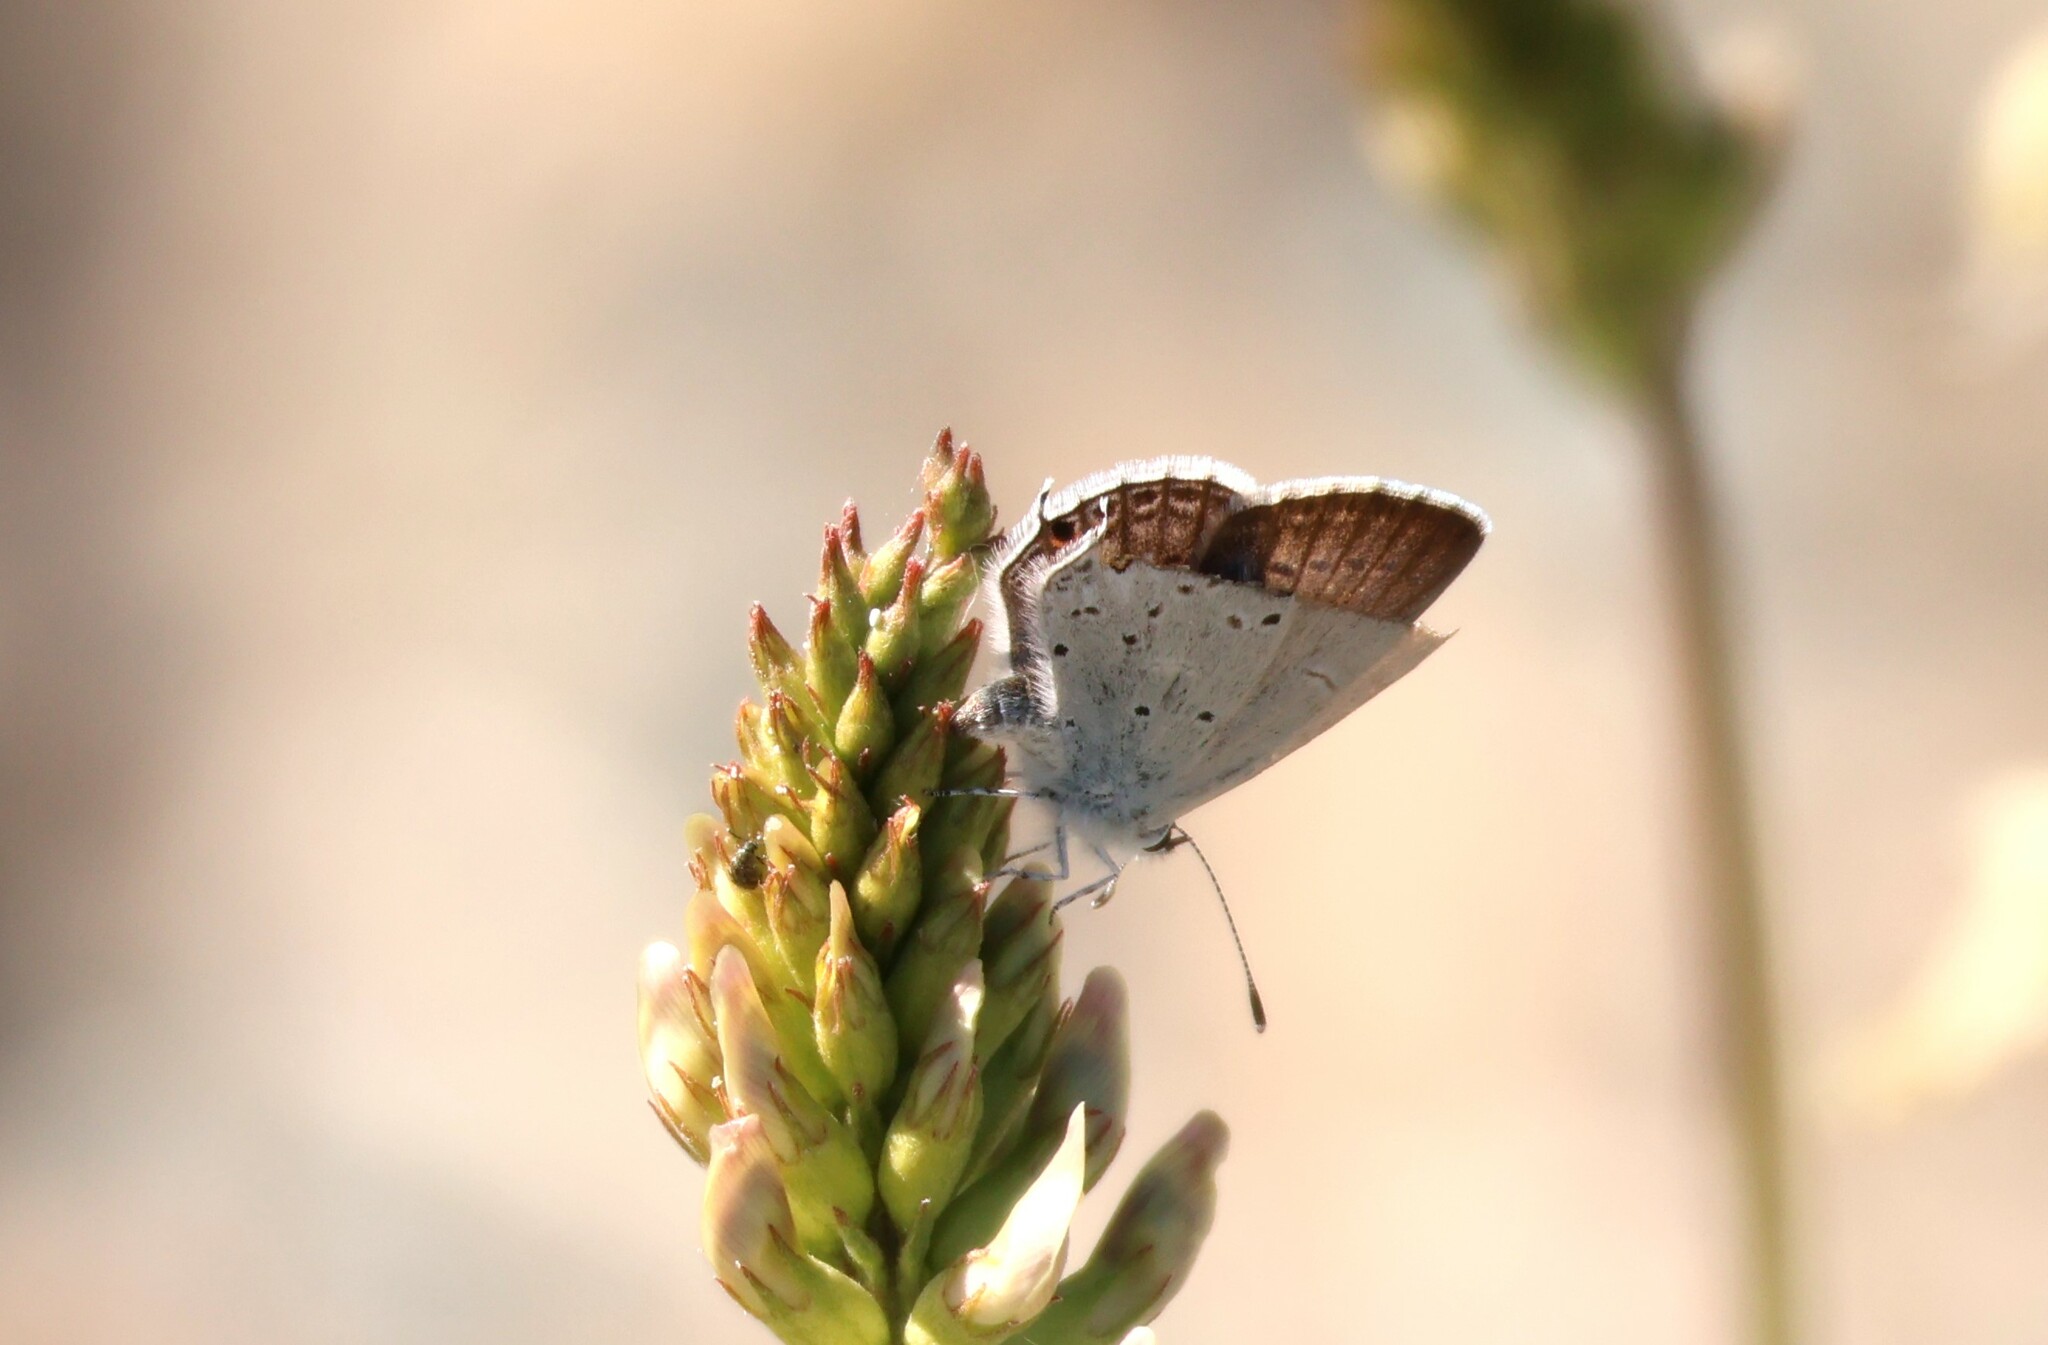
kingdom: Animalia
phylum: Arthropoda
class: Insecta
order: Lepidoptera
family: Lycaenidae
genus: Elkalyce
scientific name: Elkalyce amyntula
